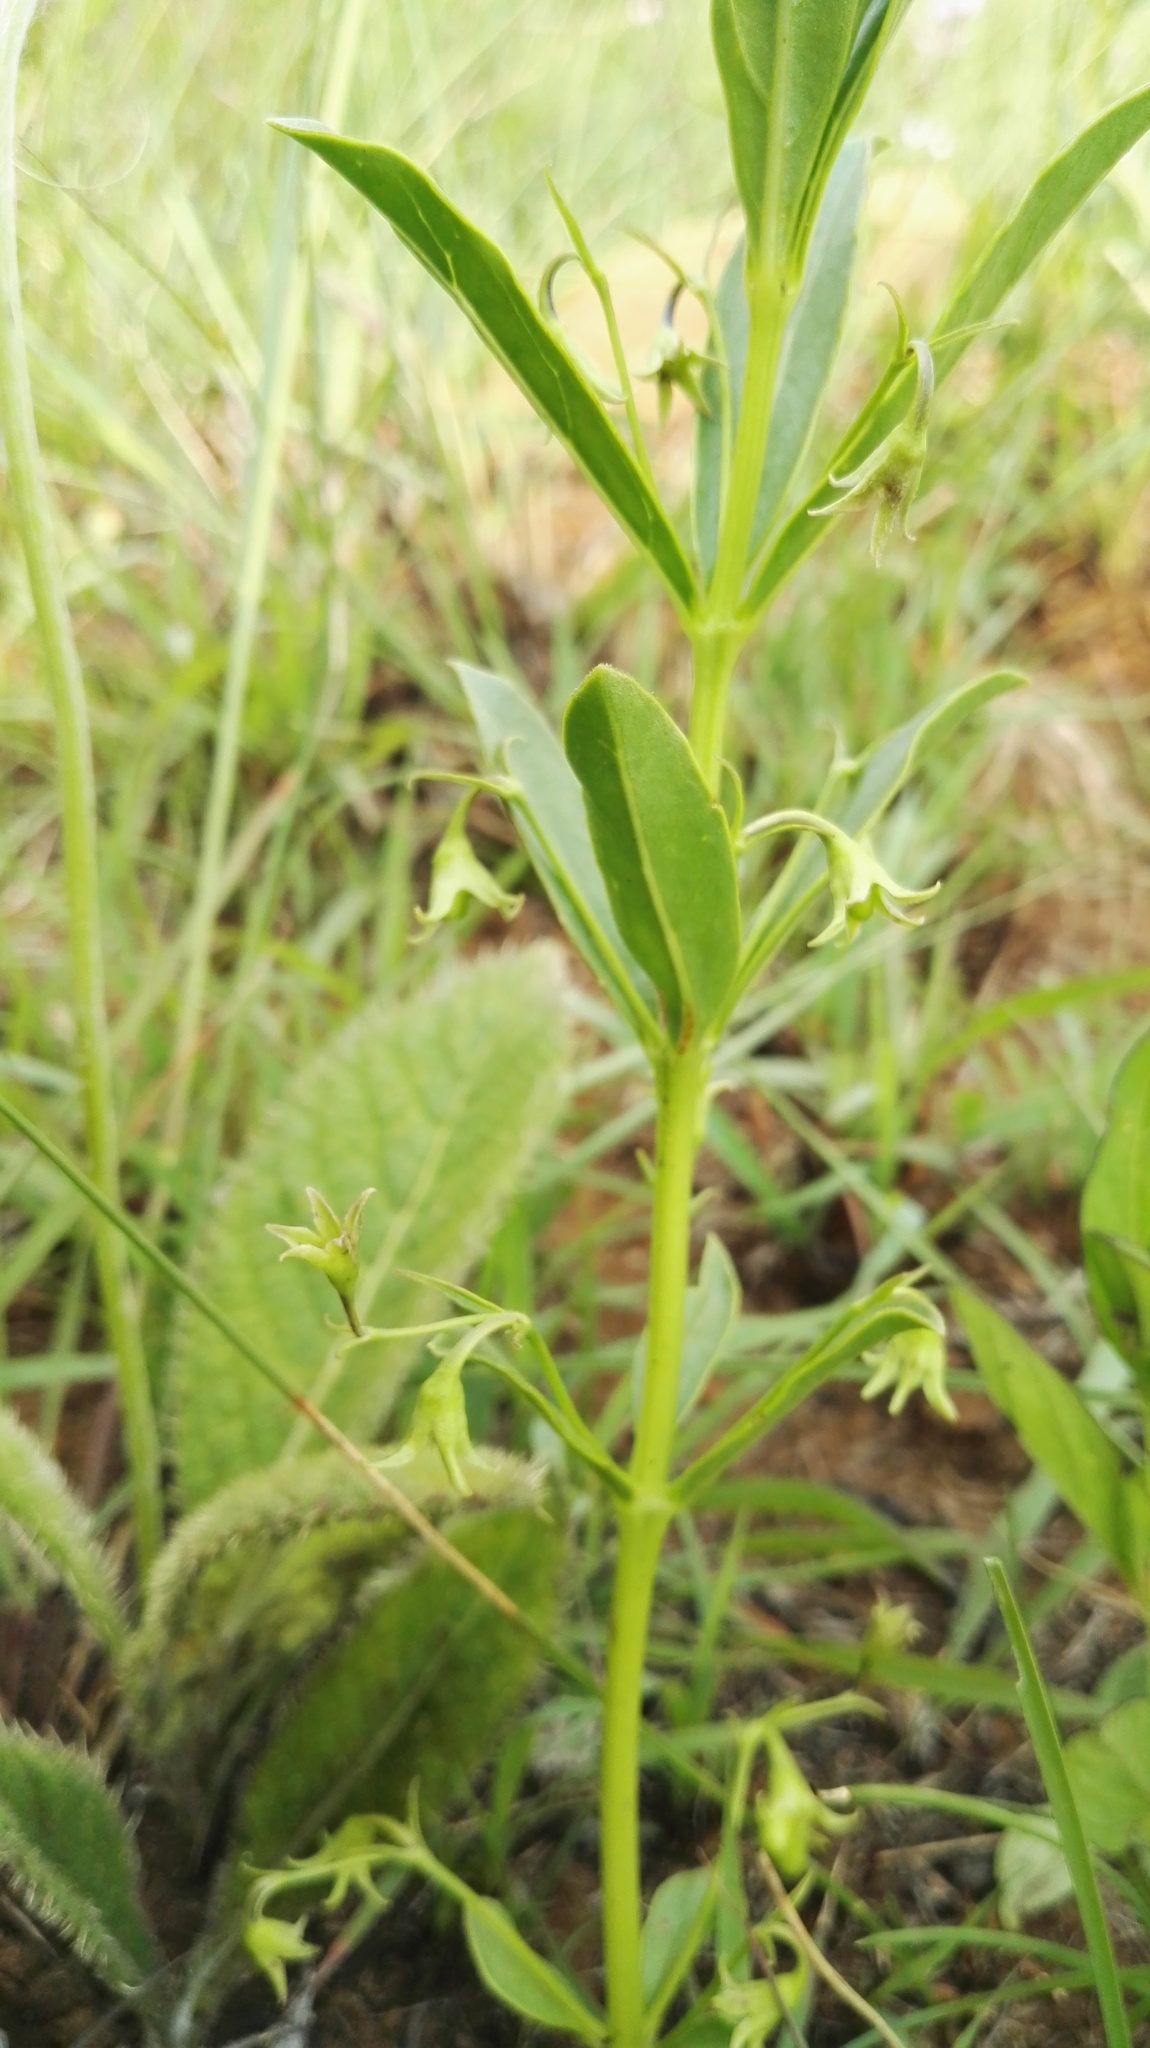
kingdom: Plantae
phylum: Tracheophyta
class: Magnoliopsida
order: Lamiales
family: Lamiaceae
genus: Rotheca
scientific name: Rotheca hirsuta
